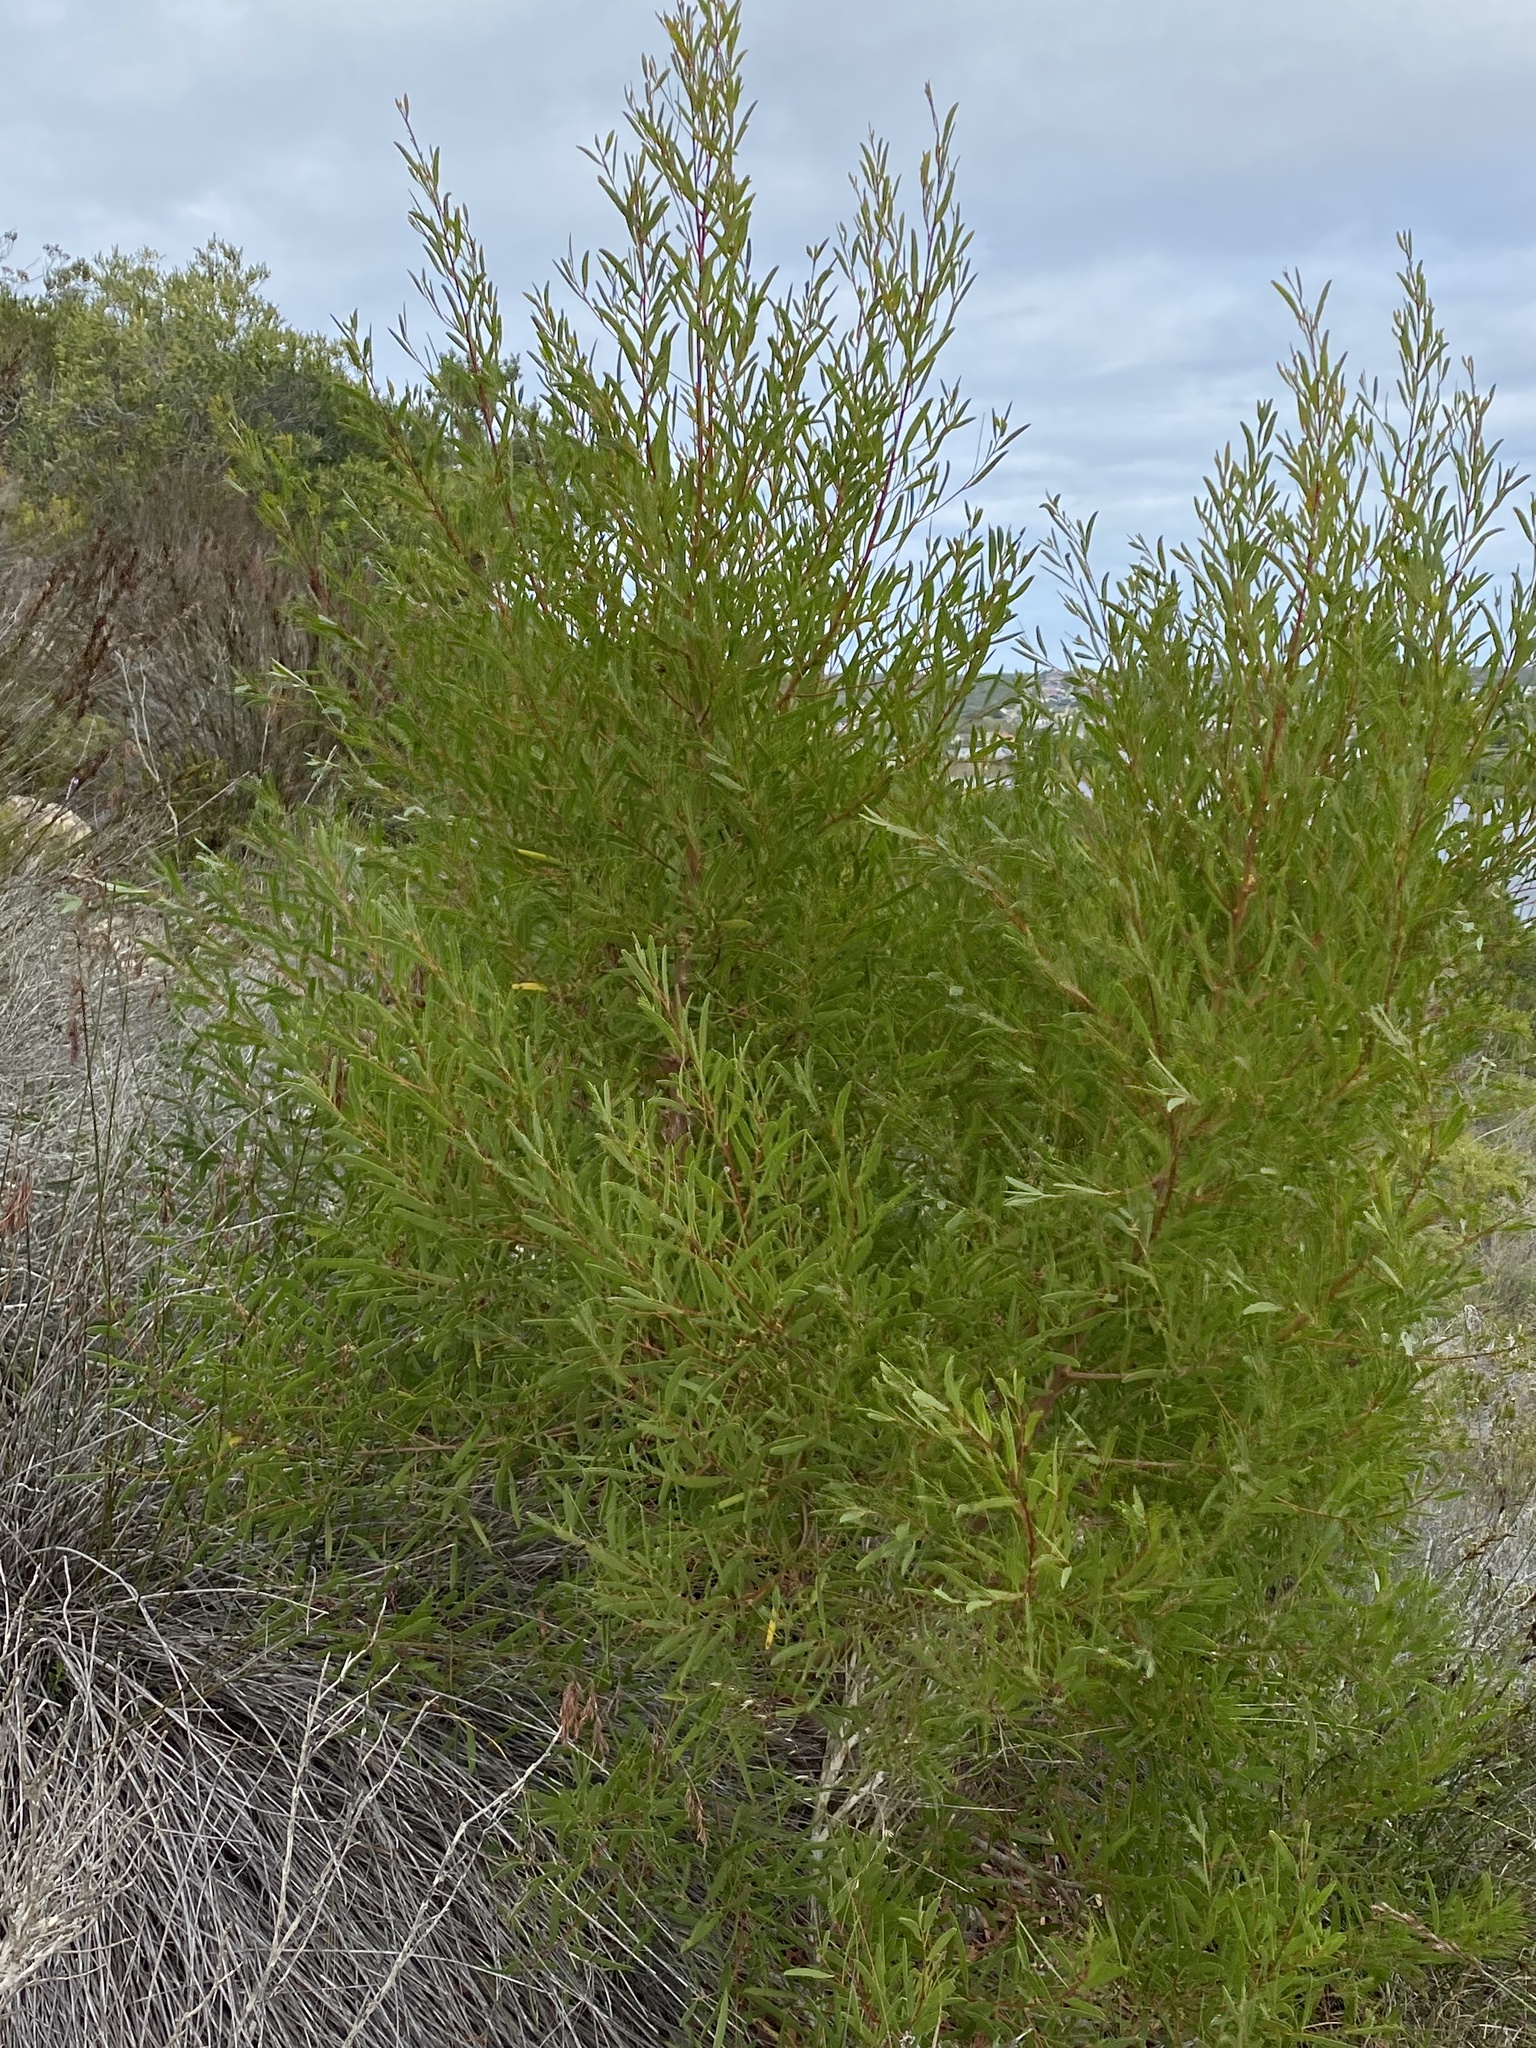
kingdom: Plantae
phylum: Tracheophyta
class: Magnoliopsida
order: Fabales
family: Fabaceae
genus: Acacia
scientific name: Acacia cyclops
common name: Coastal wattle
